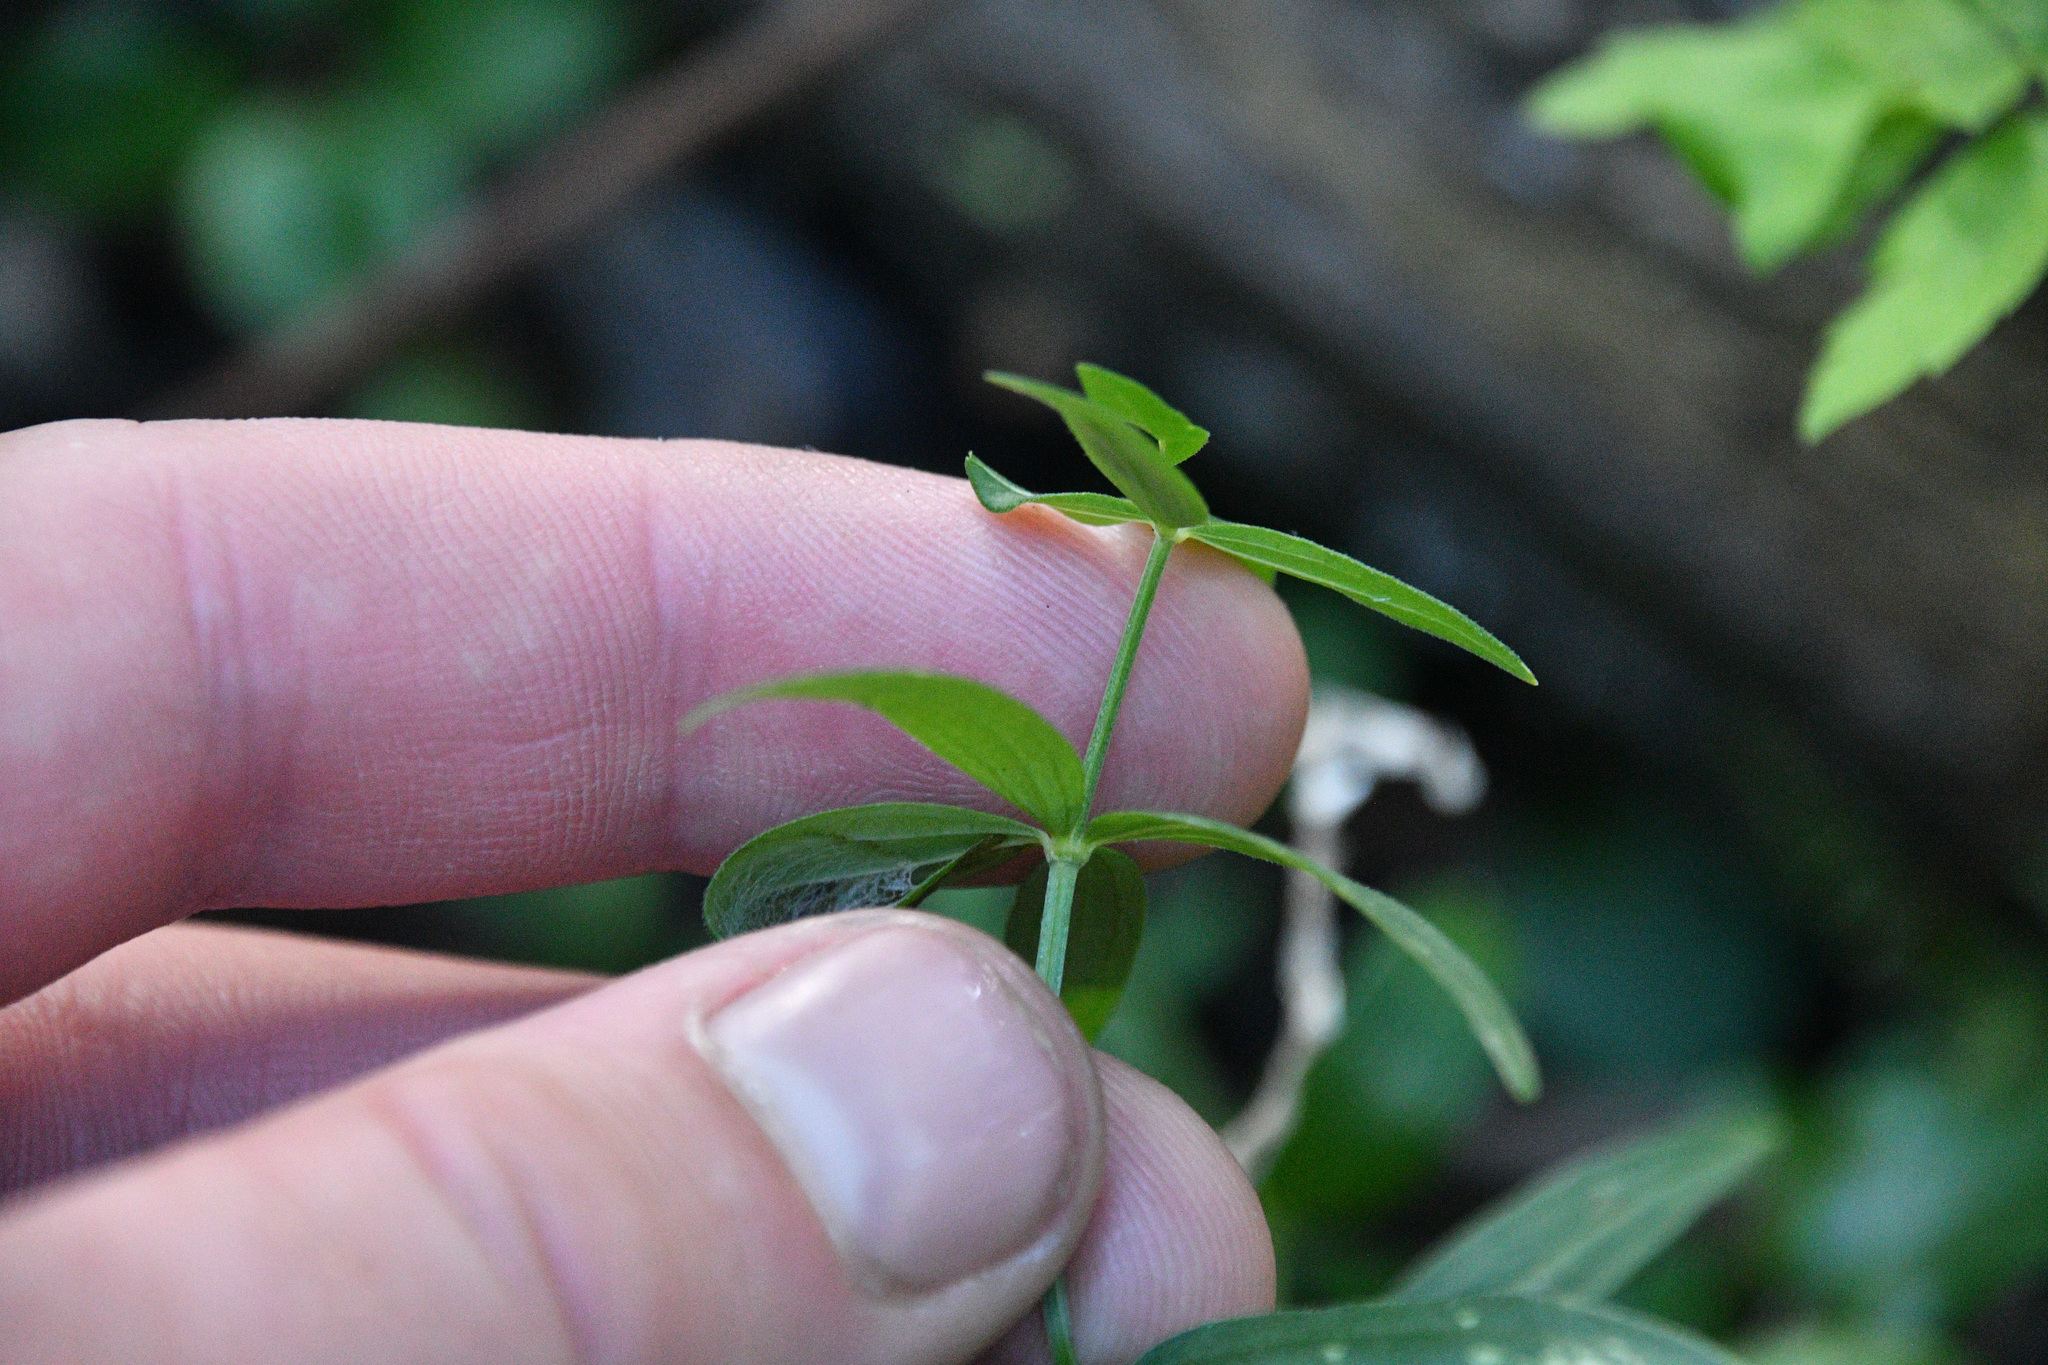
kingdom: Plantae
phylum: Tracheophyta
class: Magnoliopsida
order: Gentianales
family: Rubiaceae
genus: Galium
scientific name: Galium boreale
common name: Northern bedstraw
